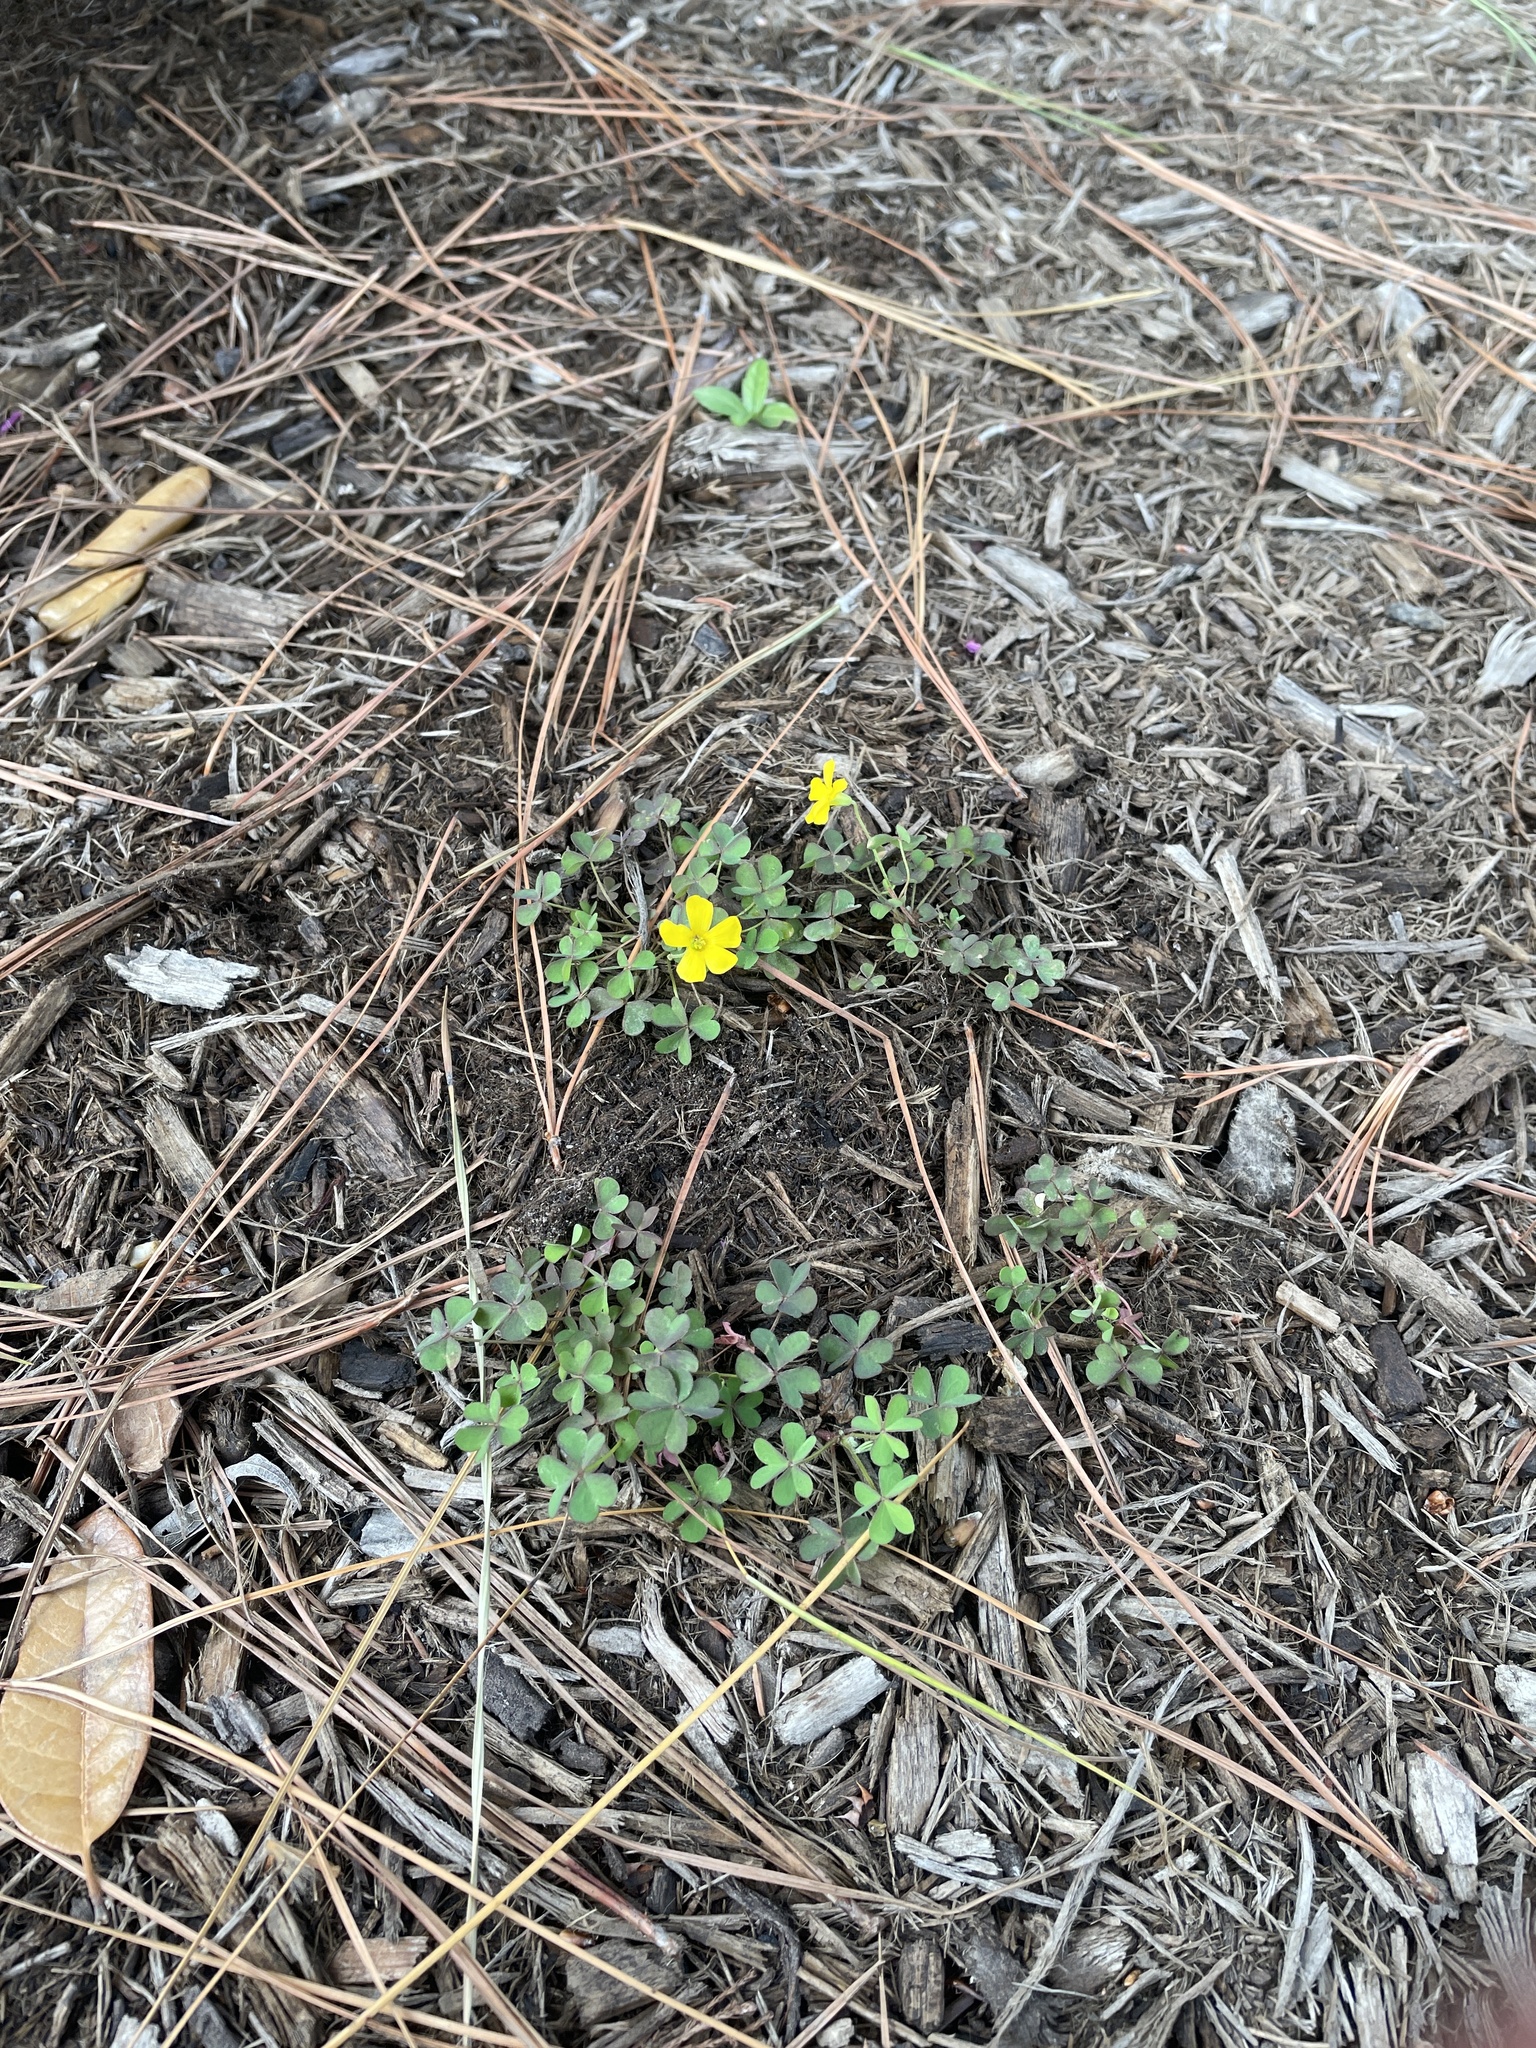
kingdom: Plantae
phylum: Tracheophyta
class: Magnoliopsida
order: Oxalidales
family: Oxalidaceae
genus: Oxalis
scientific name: Oxalis corniculata
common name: Procumbent yellow-sorrel
